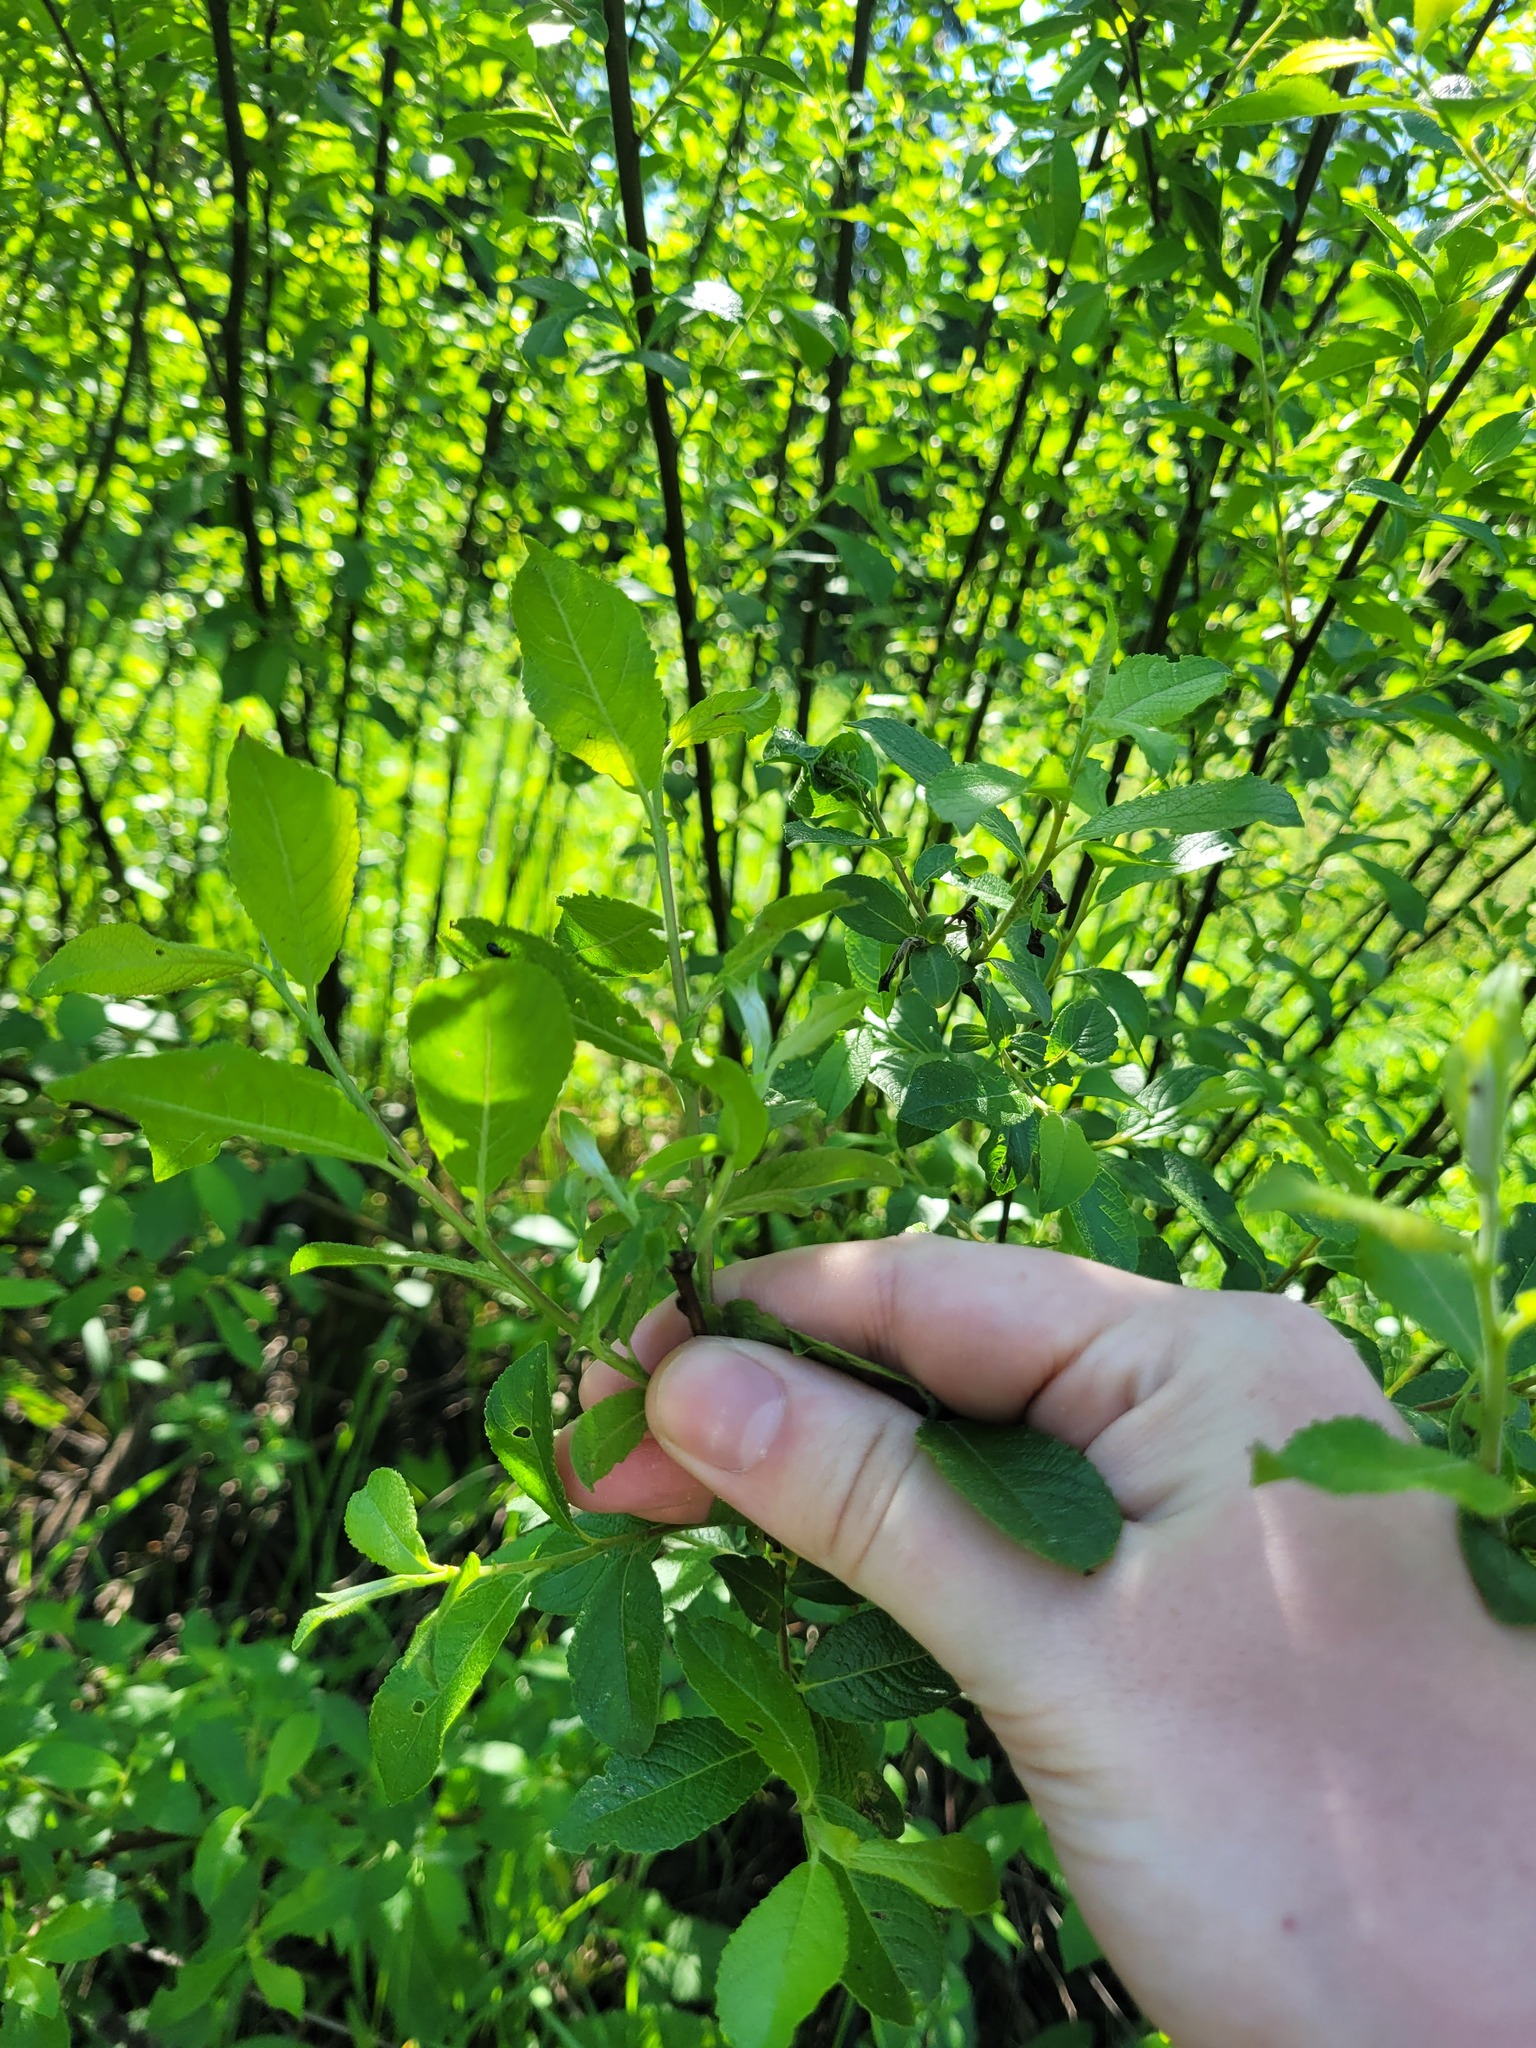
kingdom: Plantae
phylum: Tracheophyta
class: Magnoliopsida
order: Malpighiales
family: Salicaceae
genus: Salix
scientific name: Salix myrsinifolia
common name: Dark-leaved willow
